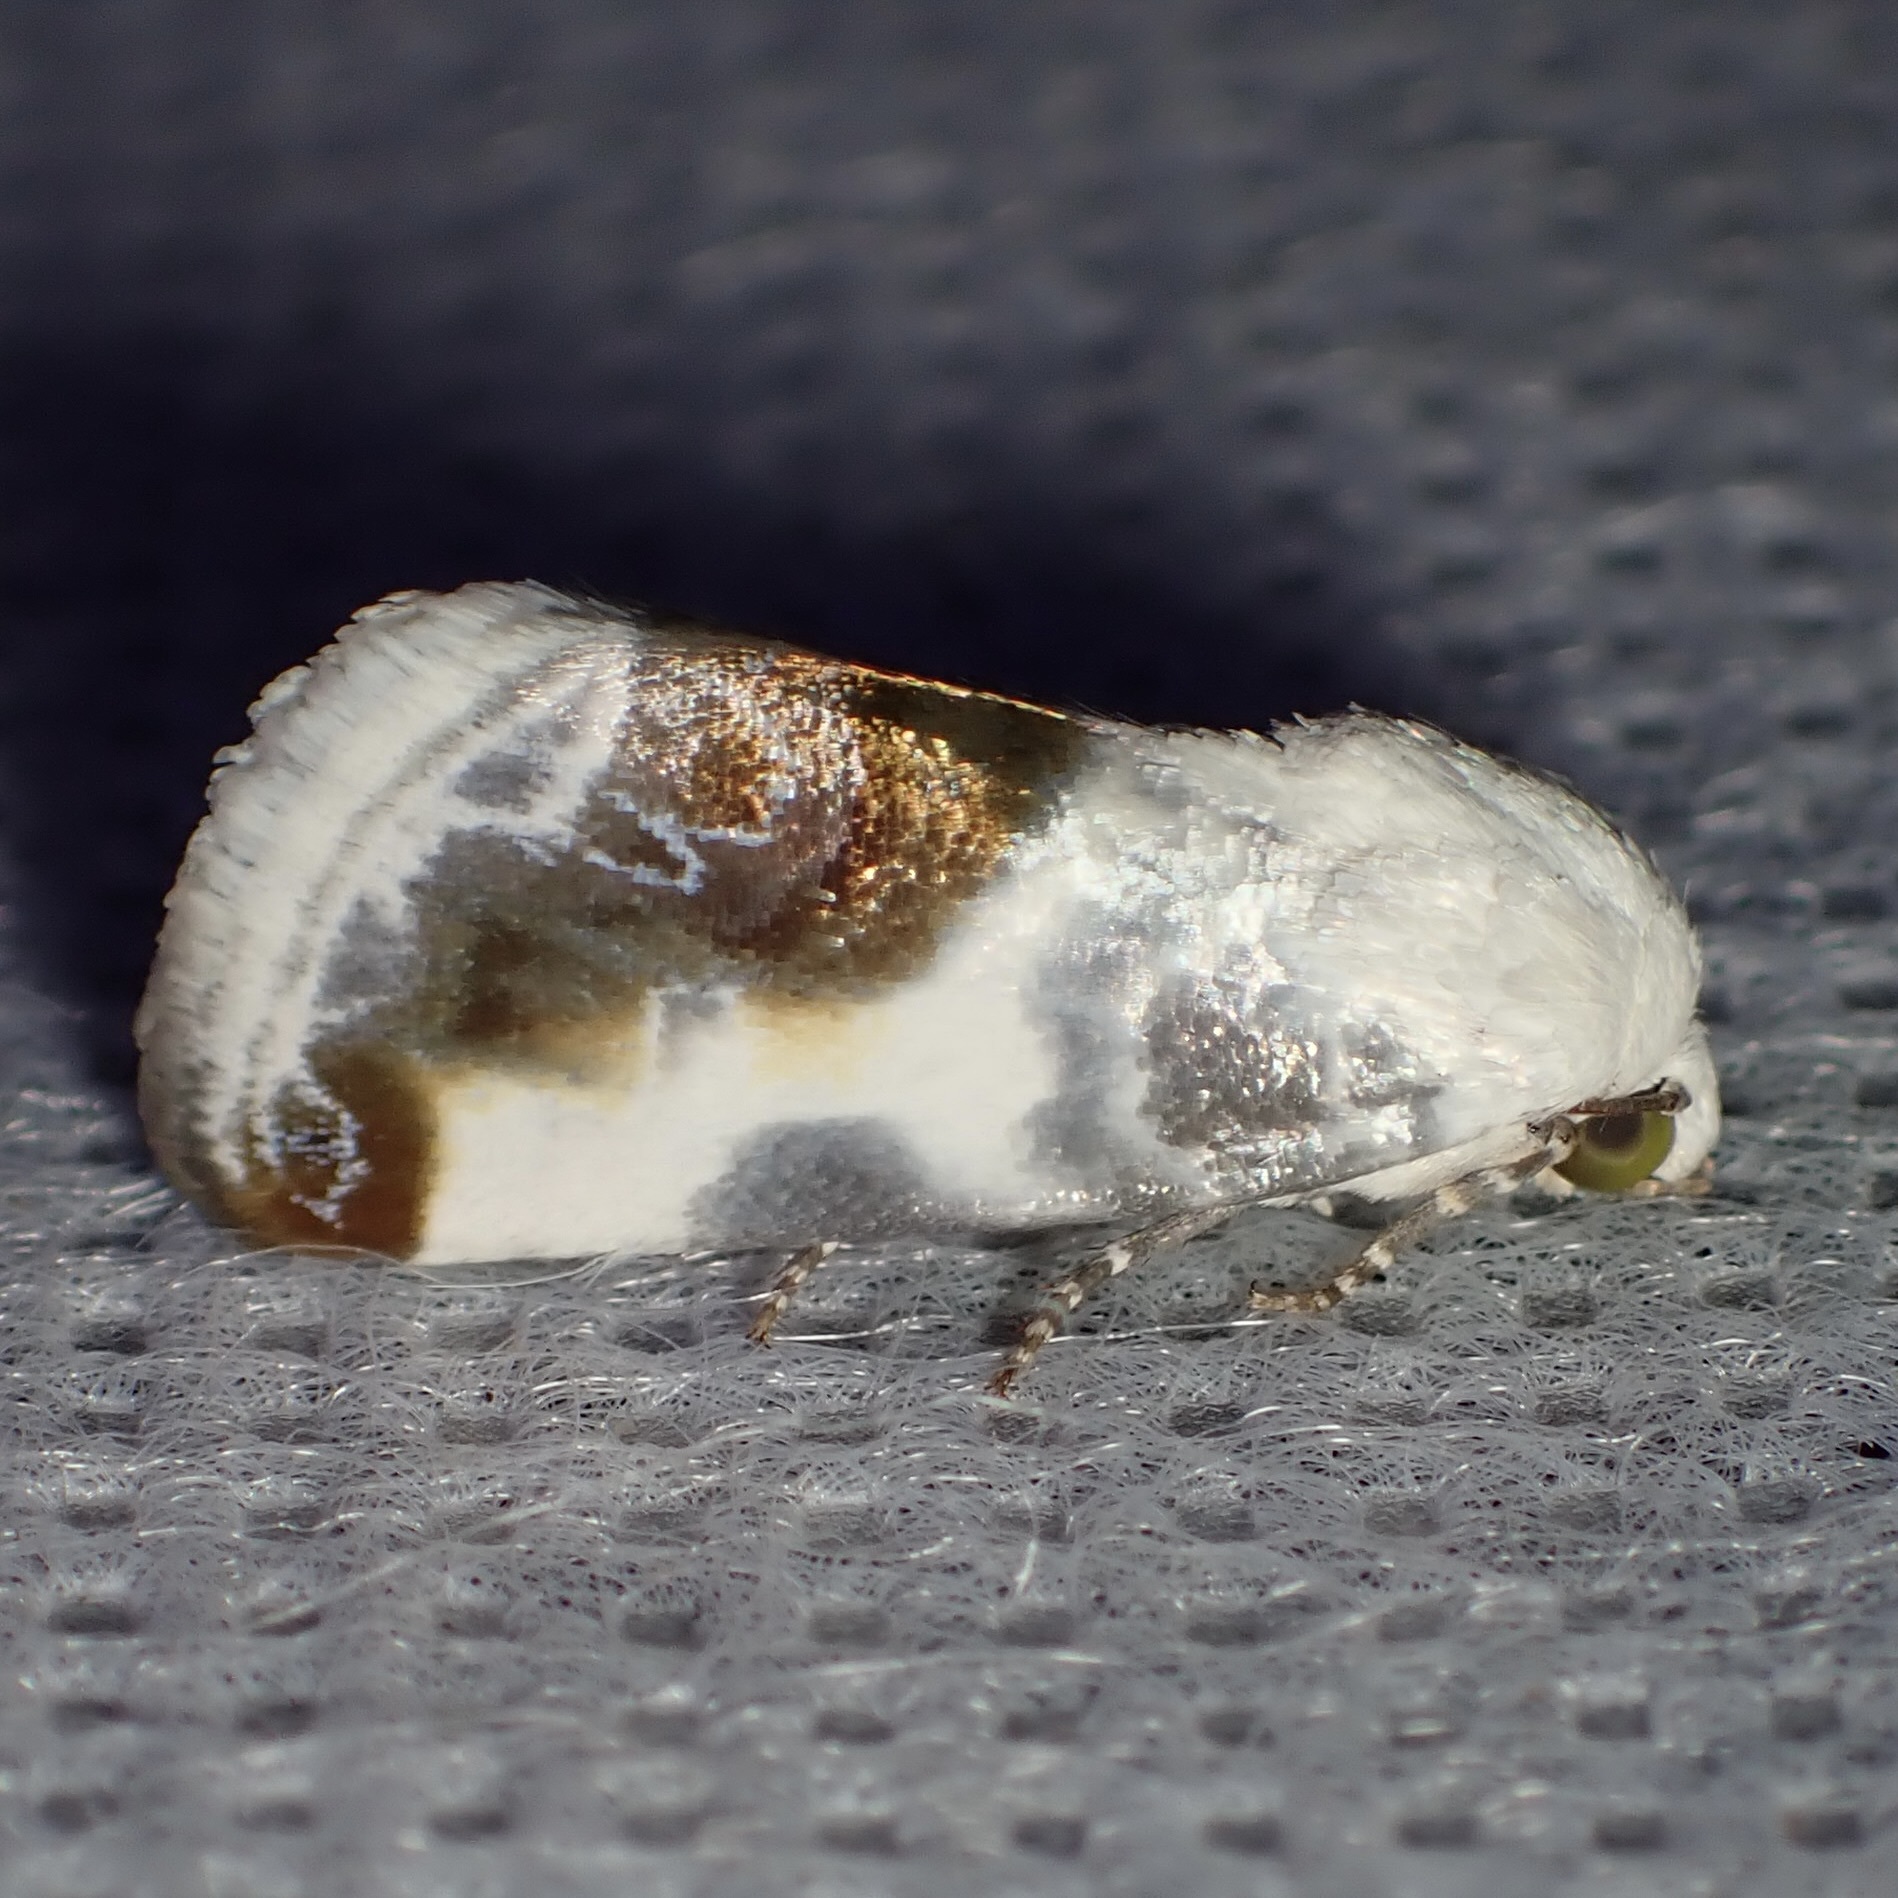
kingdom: Animalia
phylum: Arthropoda
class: Insecta
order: Lepidoptera
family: Noctuidae
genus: Acontia
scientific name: Acontia cretata
